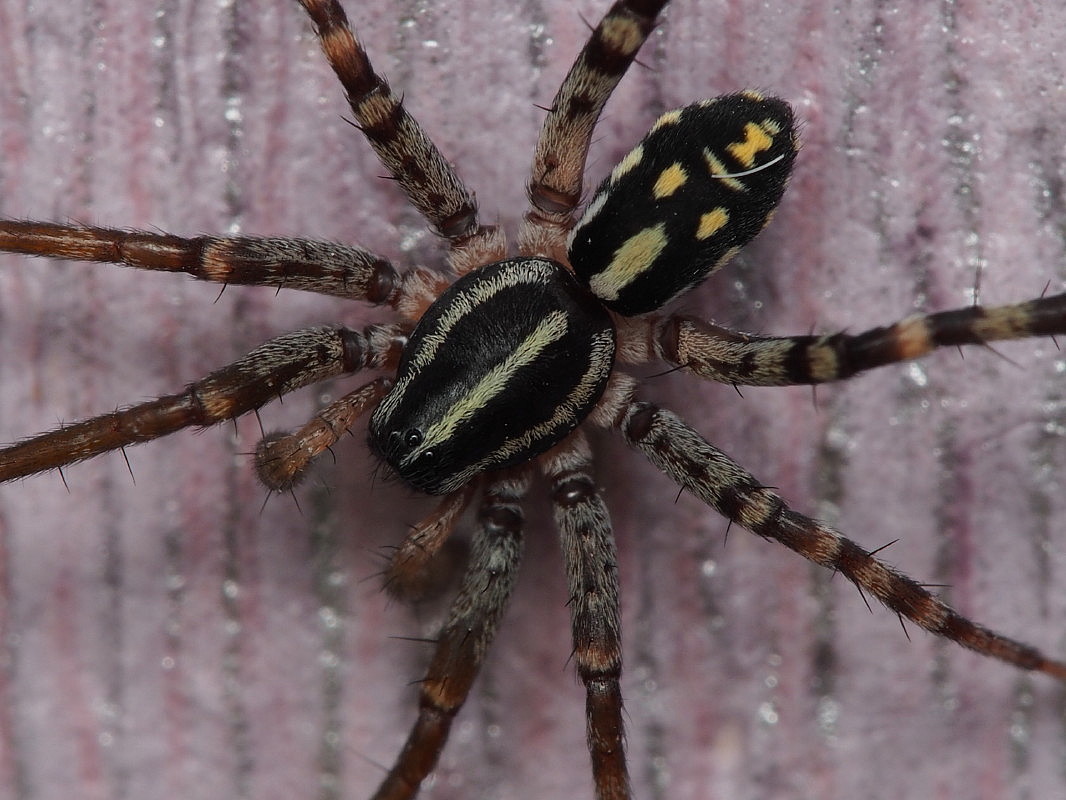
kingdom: Animalia
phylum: Arthropoda
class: Arachnida
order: Araneae
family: Corinnidae
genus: Nyssus
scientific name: Nyssus coloripes
